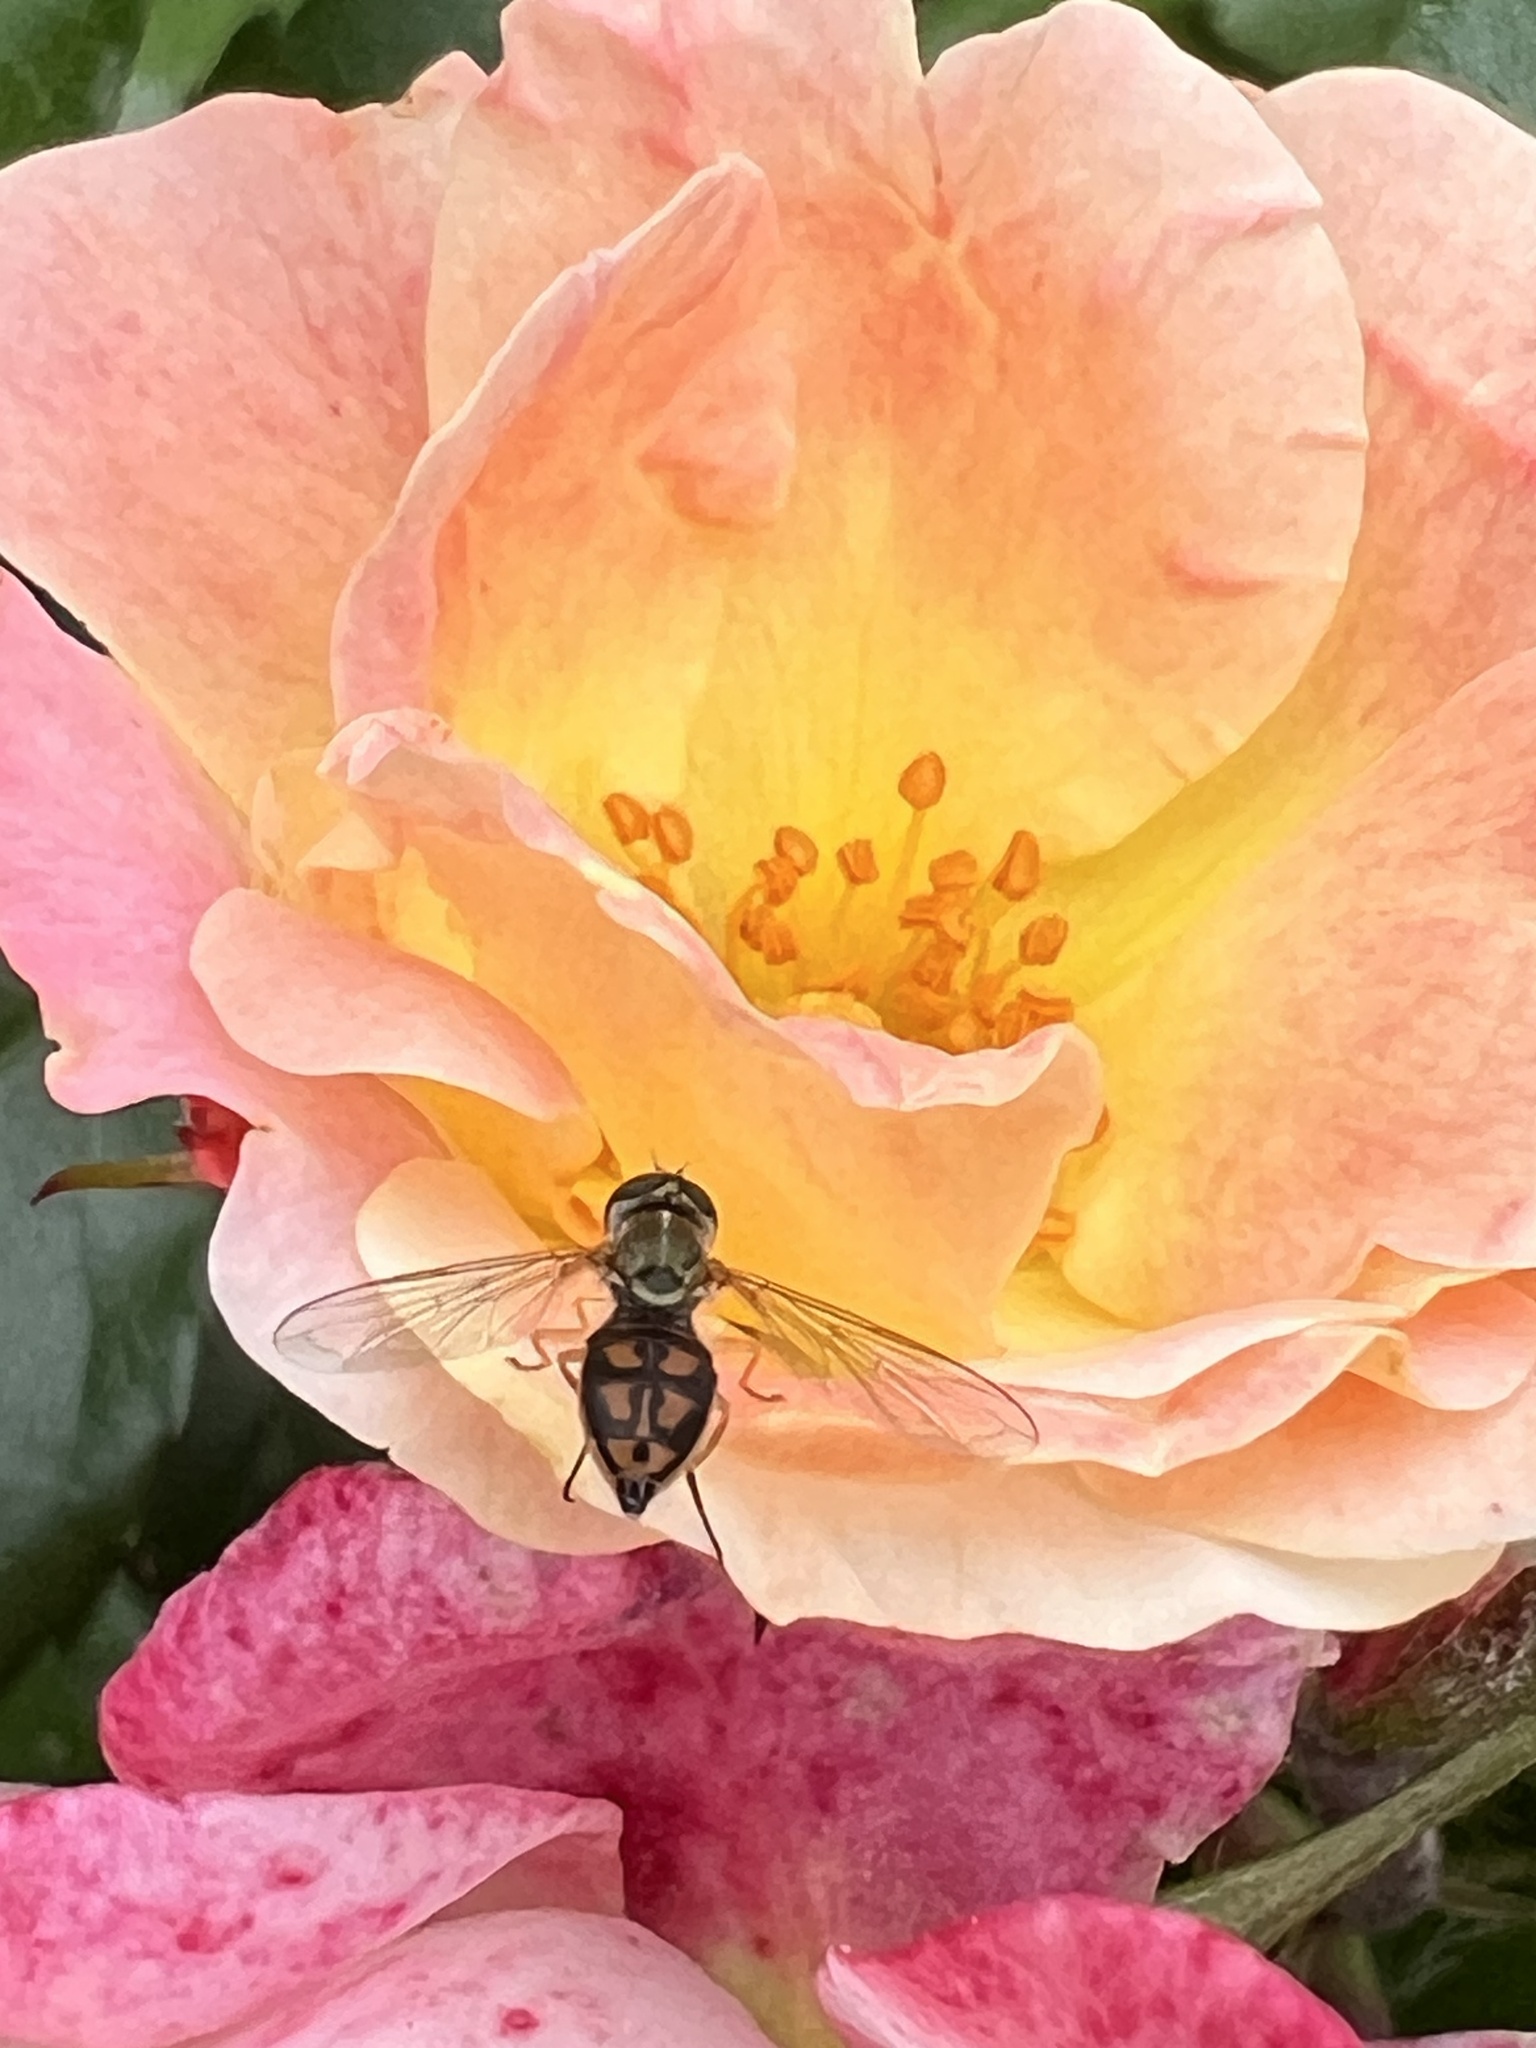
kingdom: Animalia
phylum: Arthropoda
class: Insecta
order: Diptera
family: Syrphidae
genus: Toxomerus
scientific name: Toxomerus marginatus
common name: Syrphid fly
